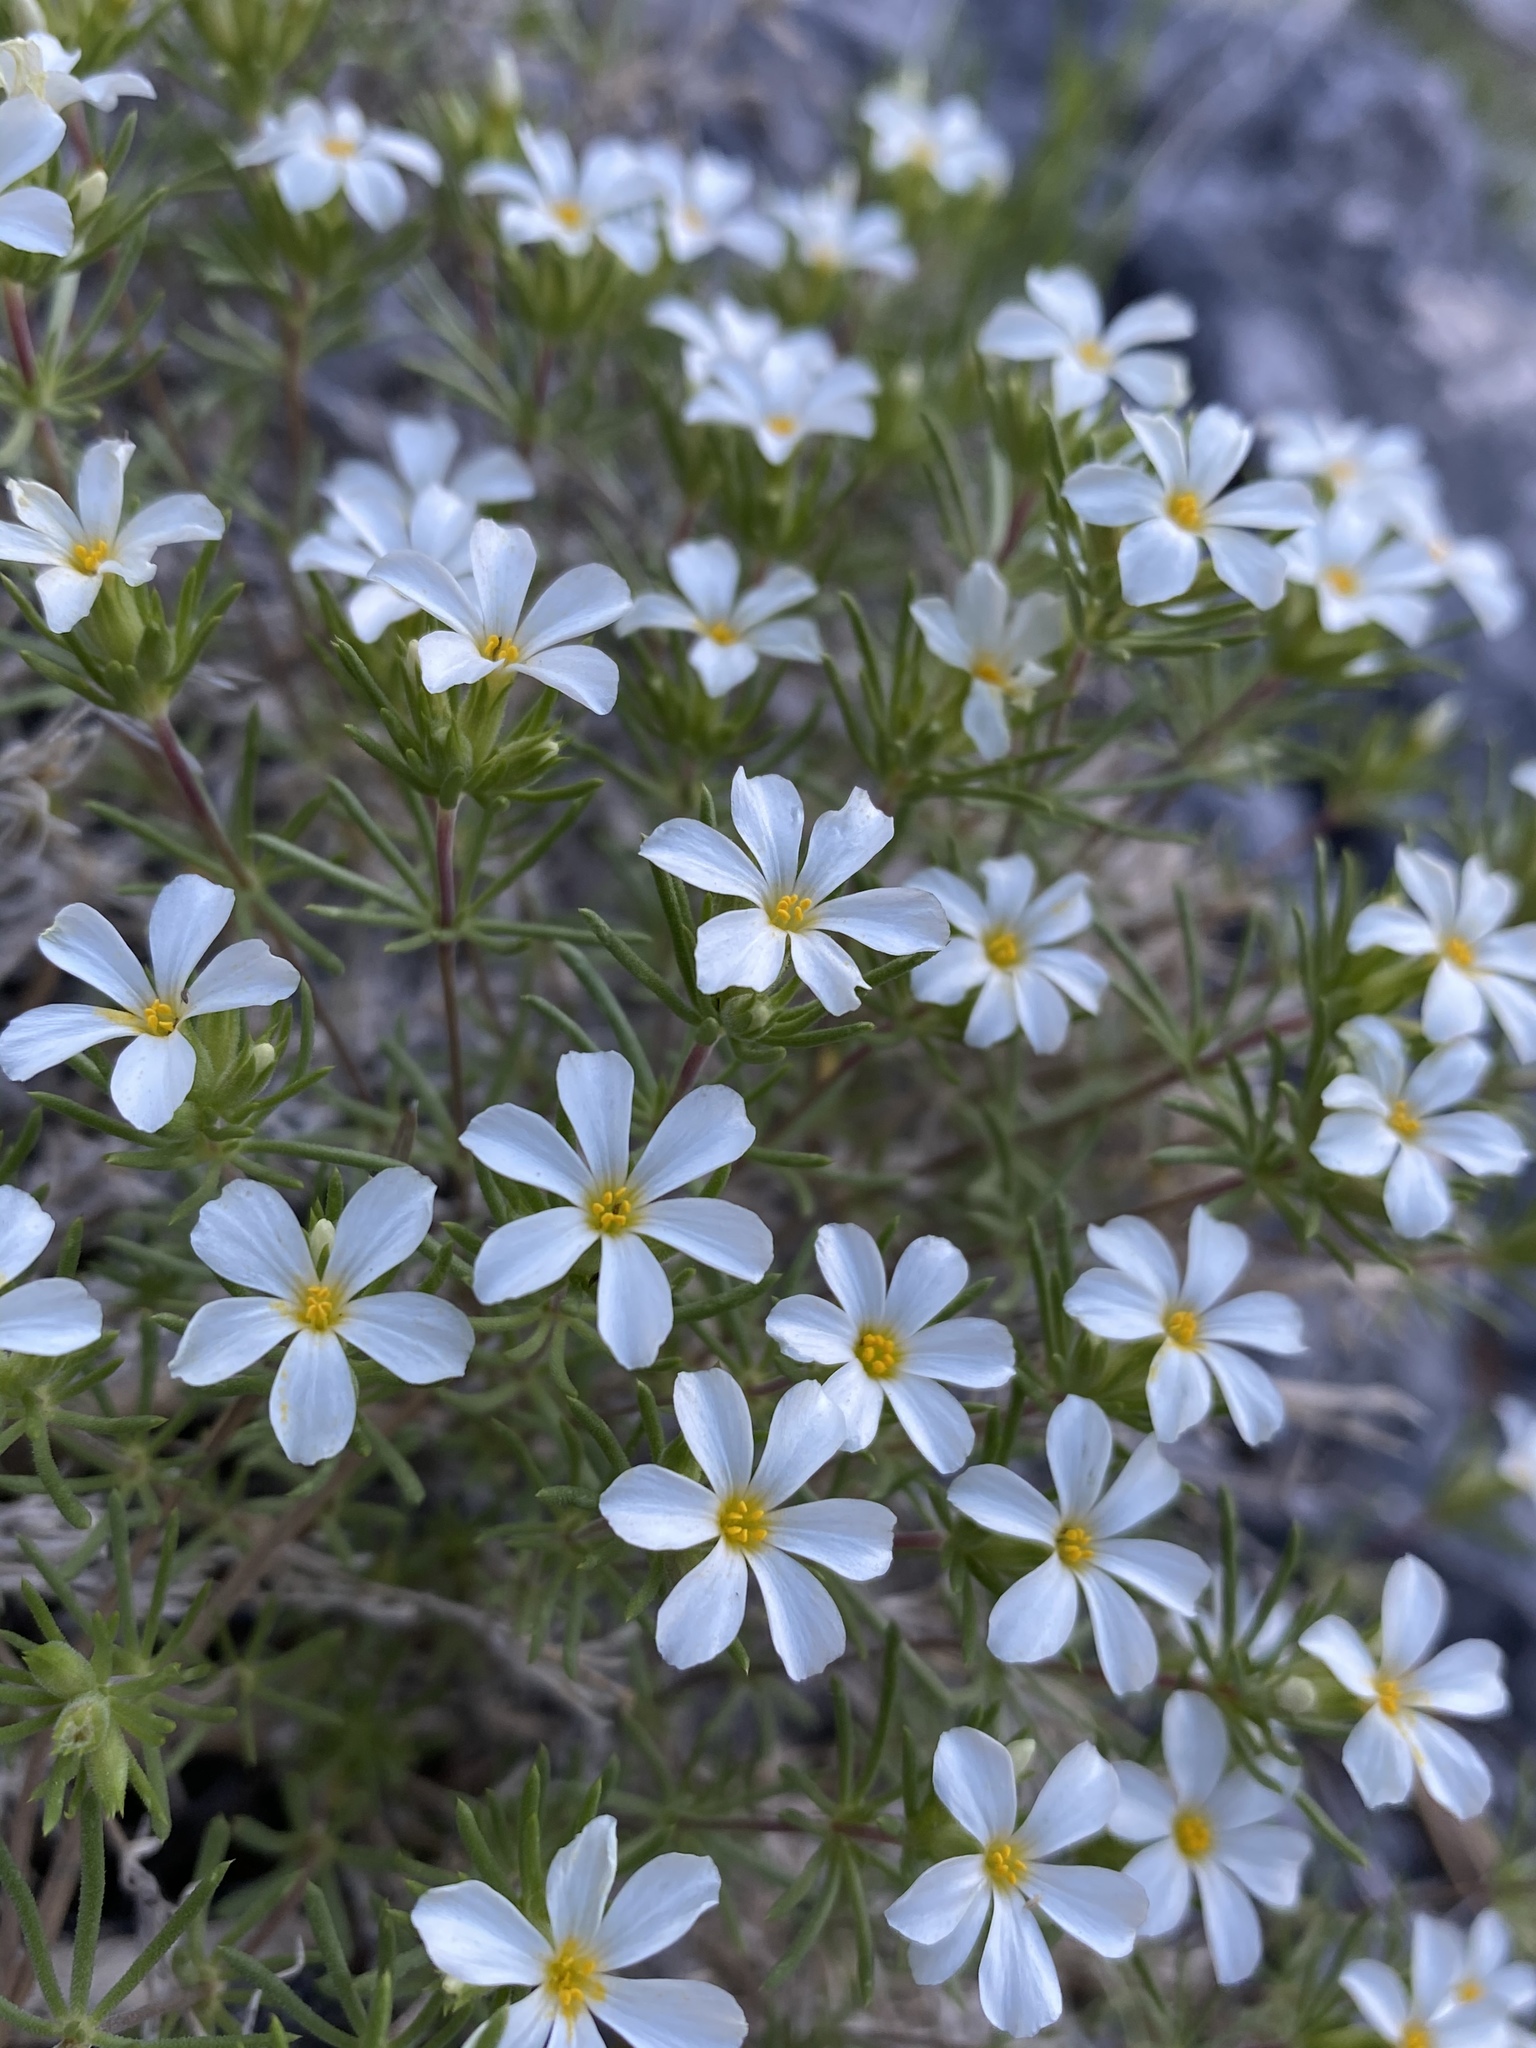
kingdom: Plantae
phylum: Tracheophyta
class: Magnoliopsida
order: Ericales
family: Polemoniaceae
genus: Leptosiphon
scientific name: Leptosiphon nuttallii
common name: Nuttall's linanthus
